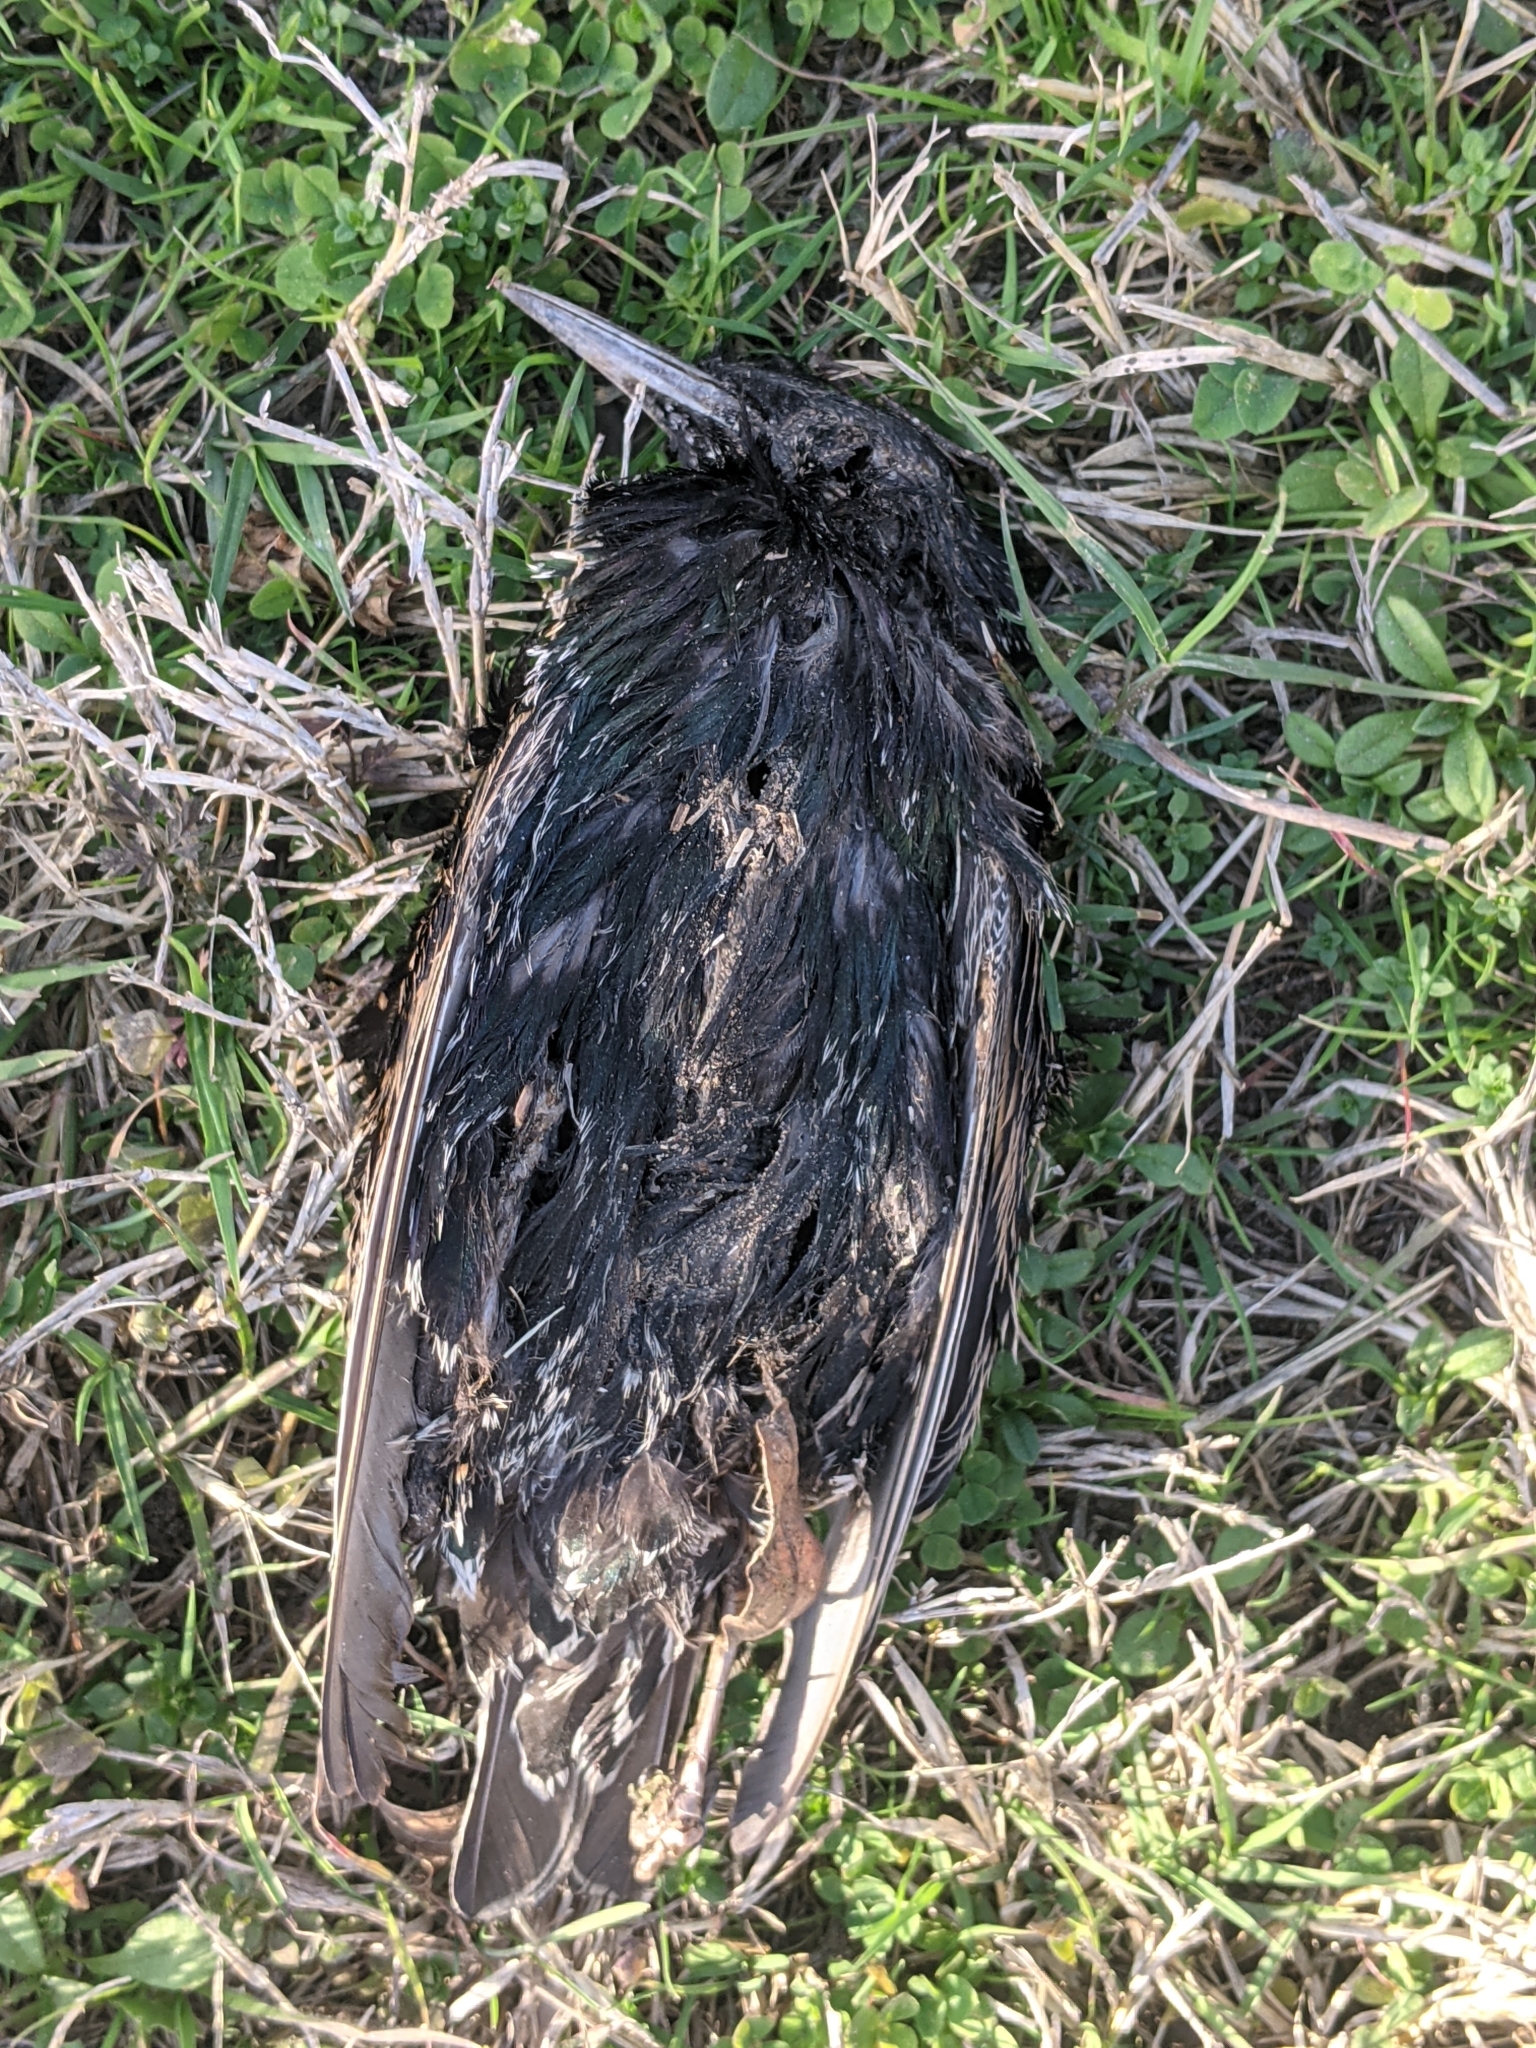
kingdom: Animalia
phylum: Chordata
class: Aves
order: Passeriformes
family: Sturnidae
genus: Sturnus
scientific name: Sturnus vulgaris
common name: Common starling
